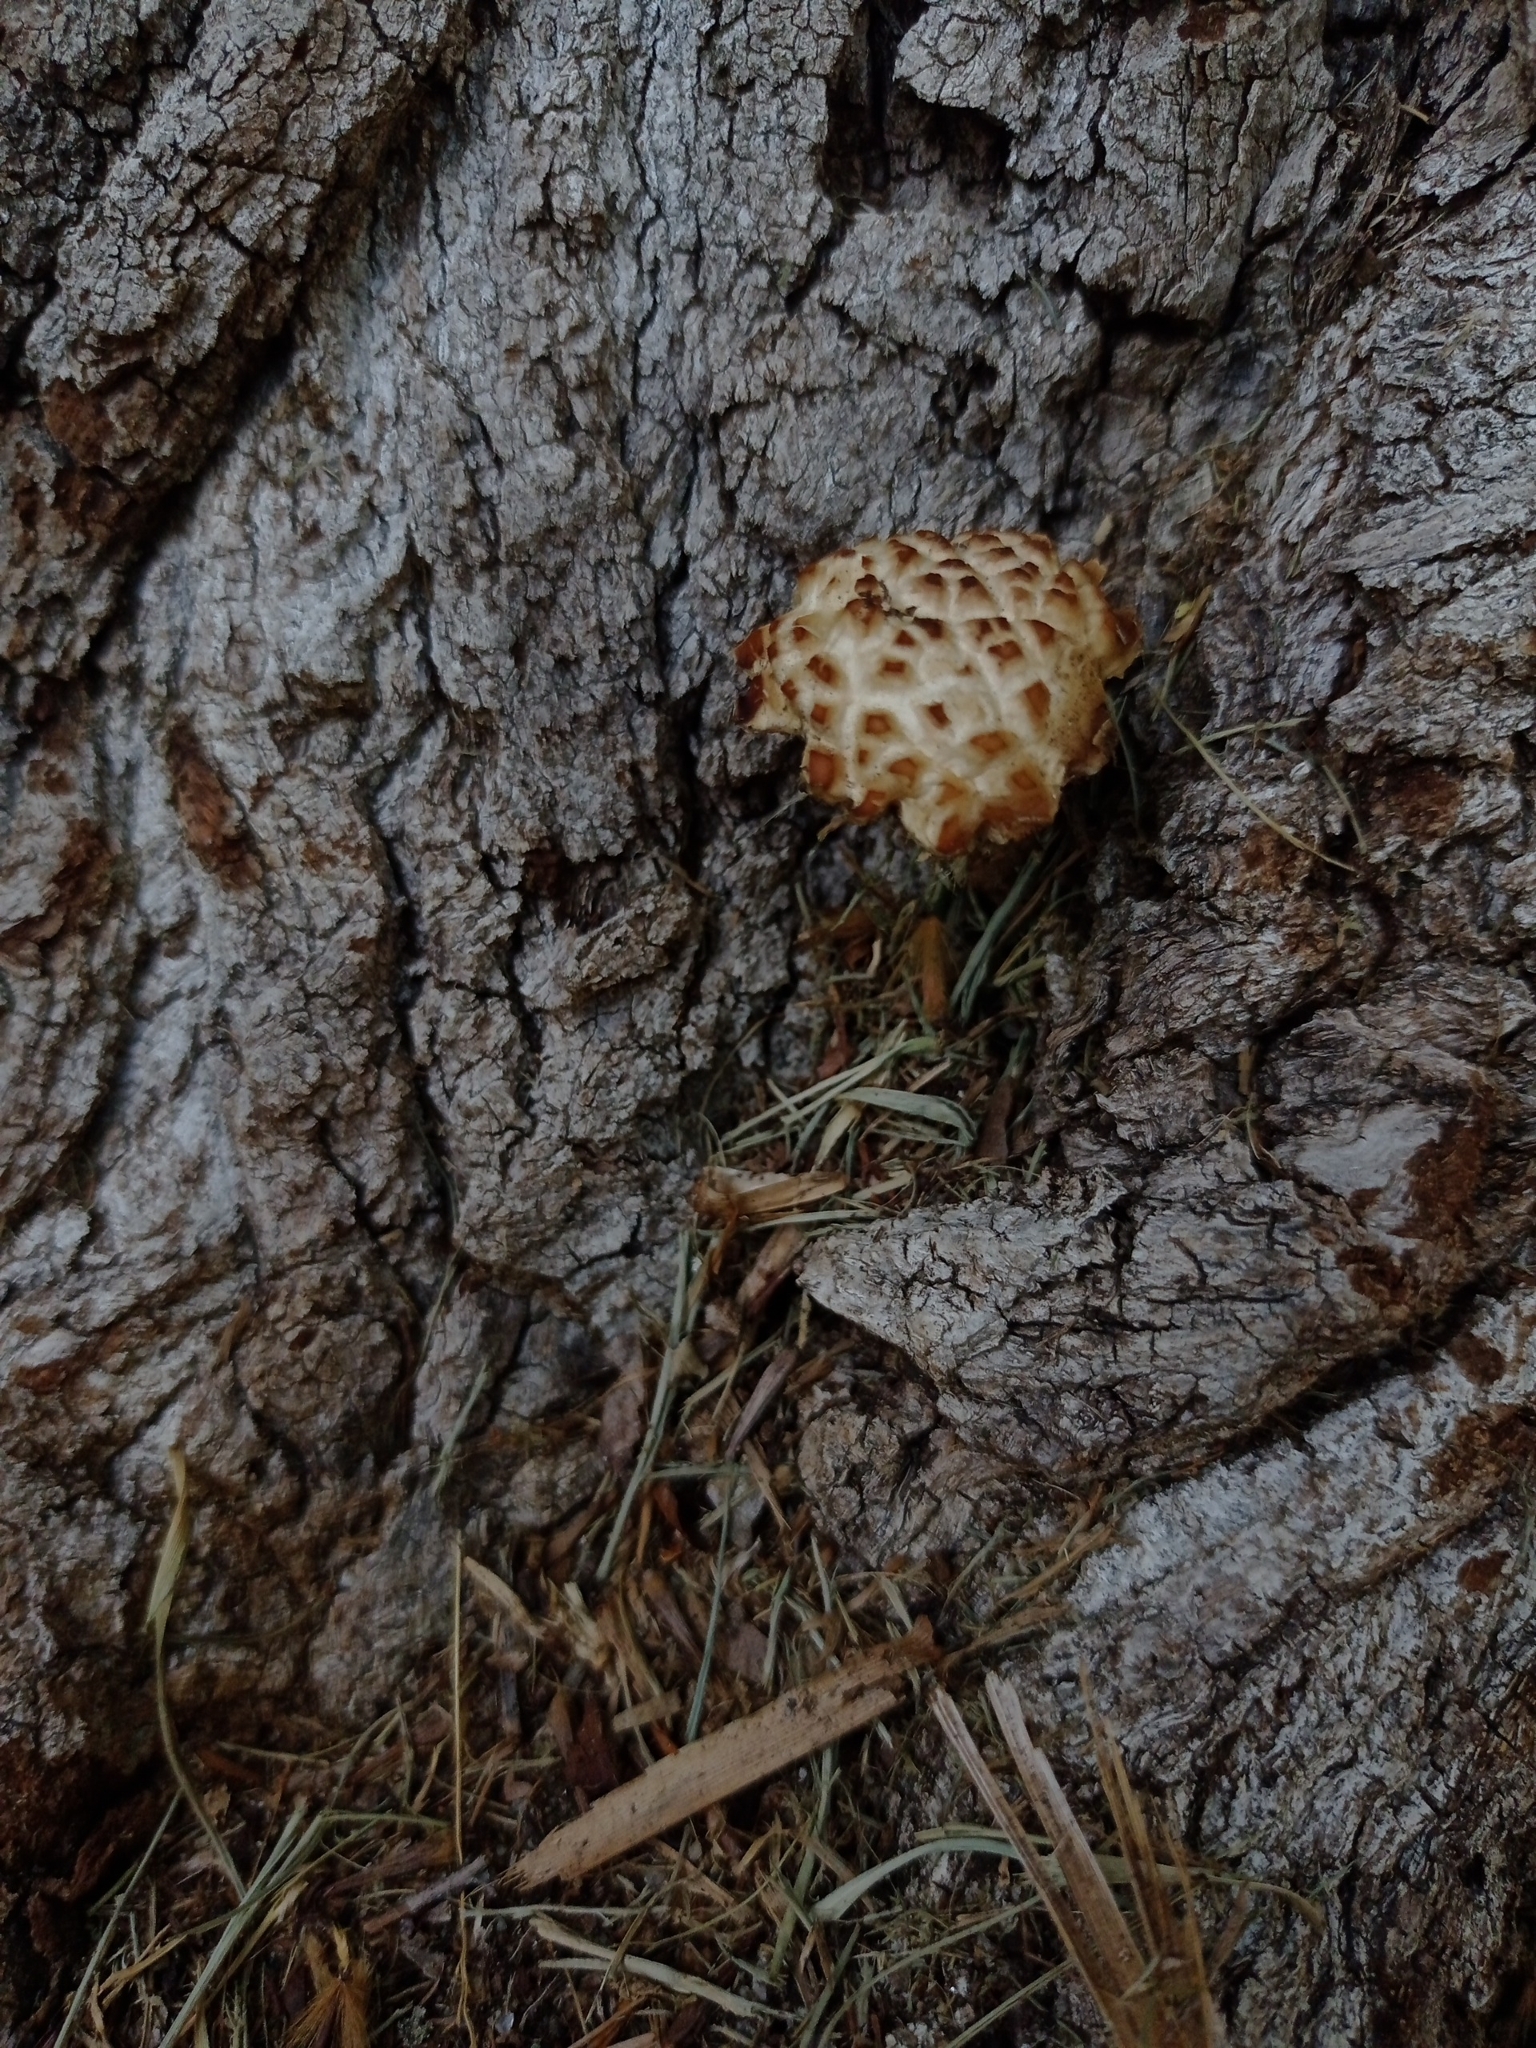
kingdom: Fungi
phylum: Basidiomycota
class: Agaricomycetes
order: Agaricales
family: Tubariaceae
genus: Cyclocybe
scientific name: Cyclocybe cylindracea
